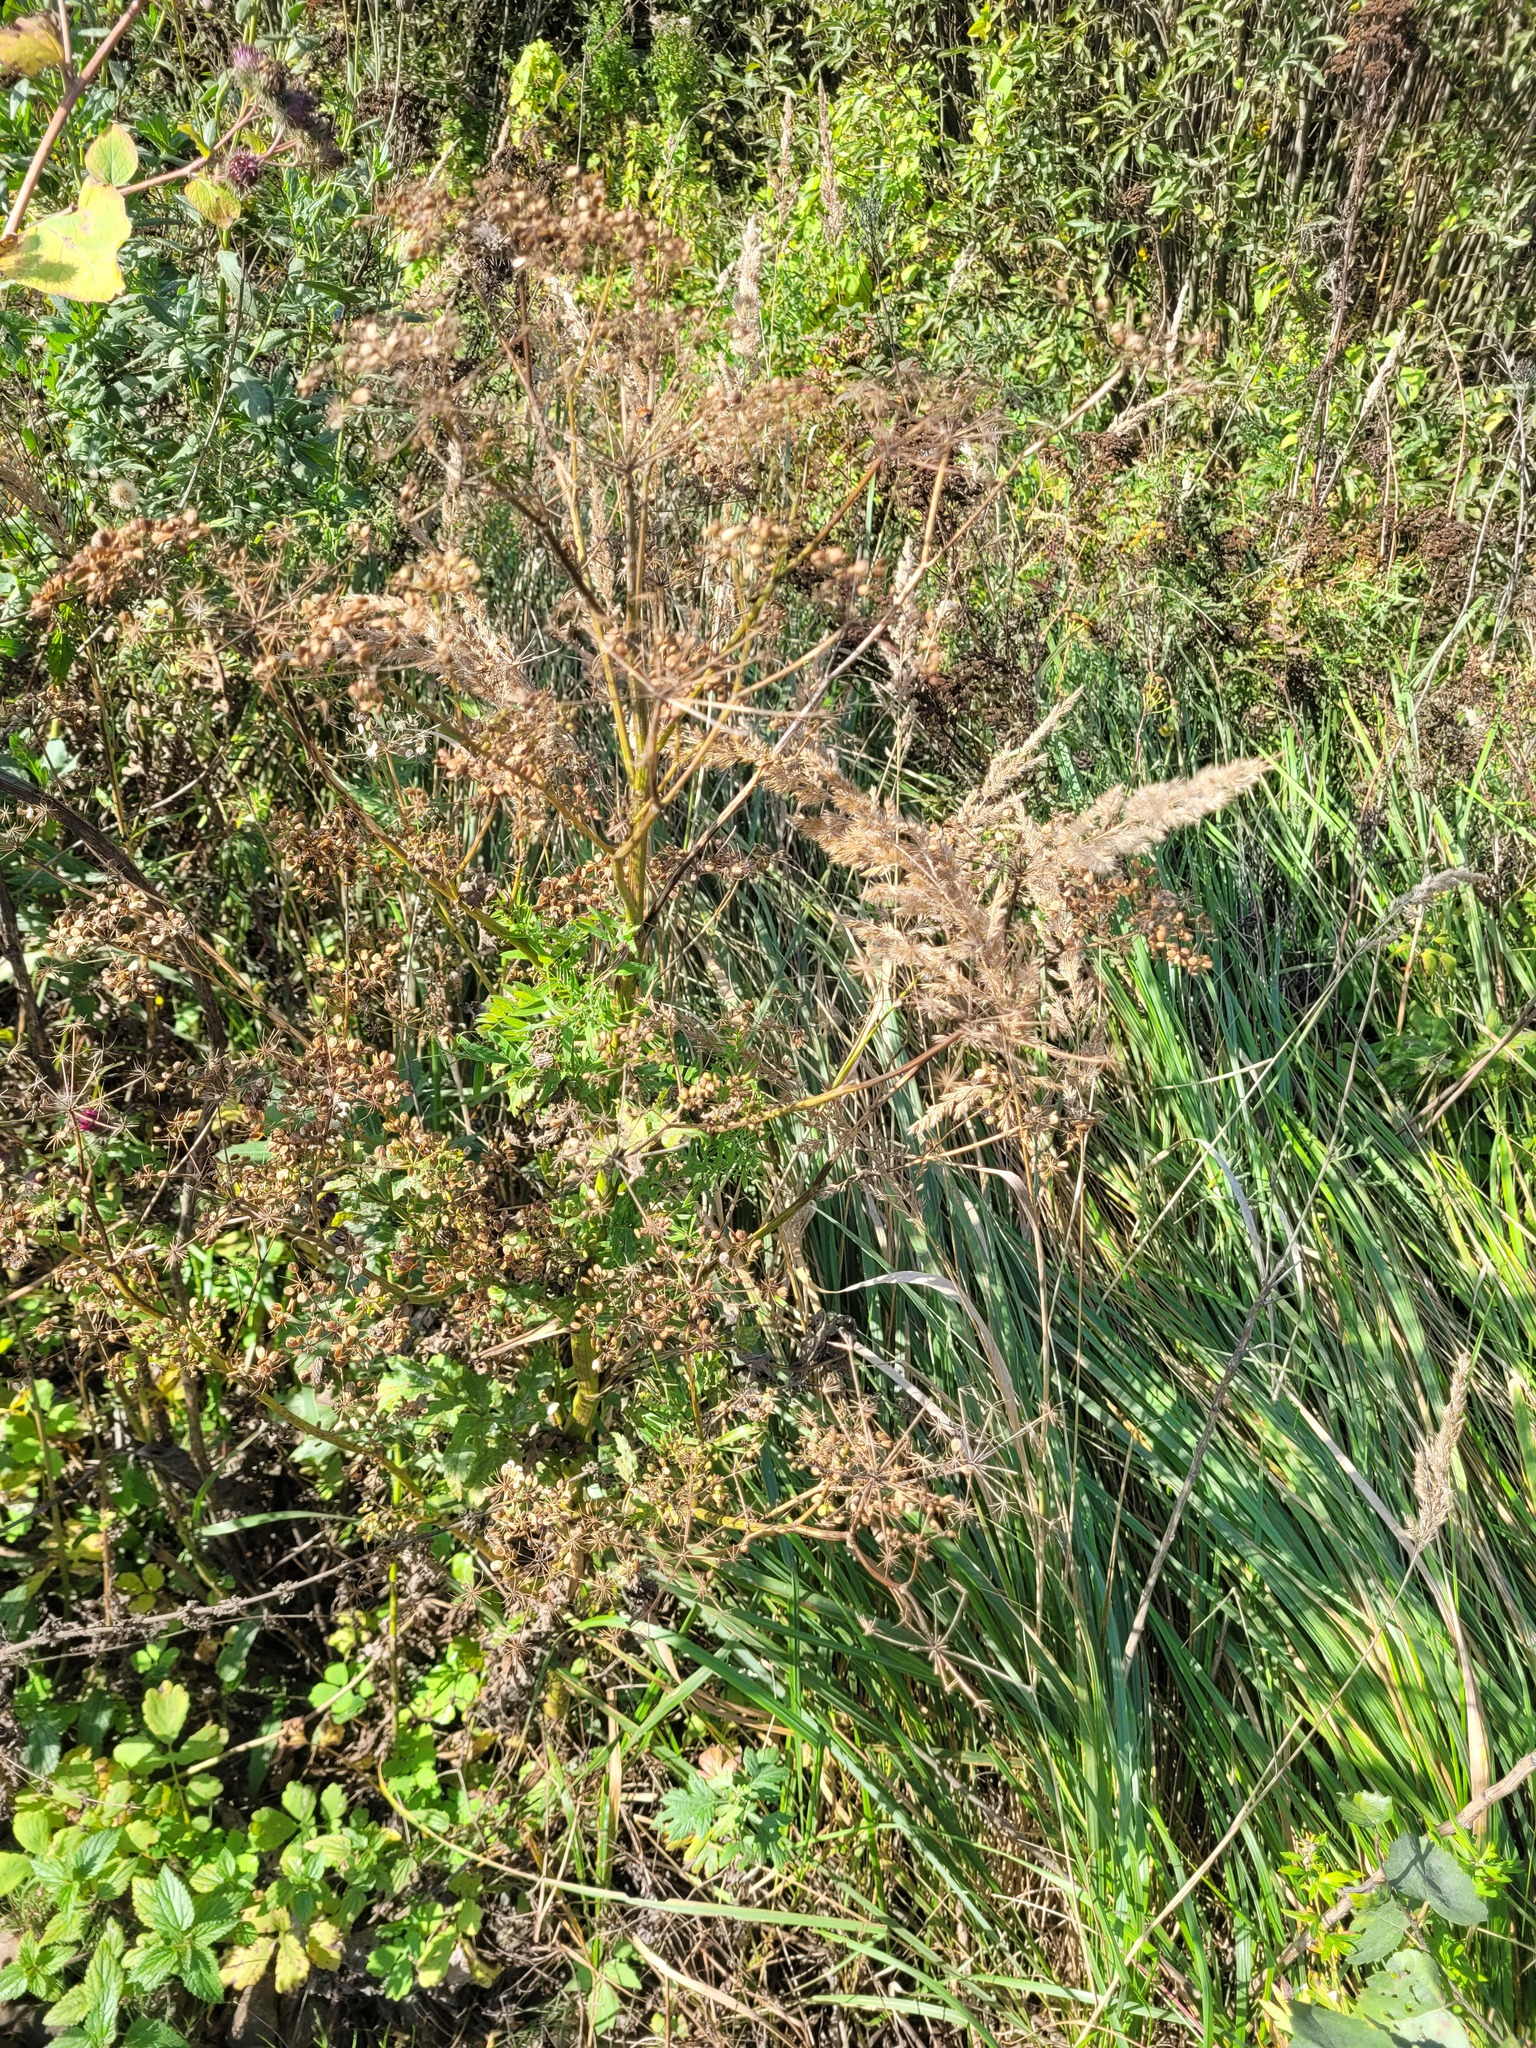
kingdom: Plantae
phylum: Tracheophyta
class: Magnoliopsida
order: Apiales
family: Apiaceae
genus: Pastinaca
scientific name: Pastinaca sativa
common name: Wild parsnip
